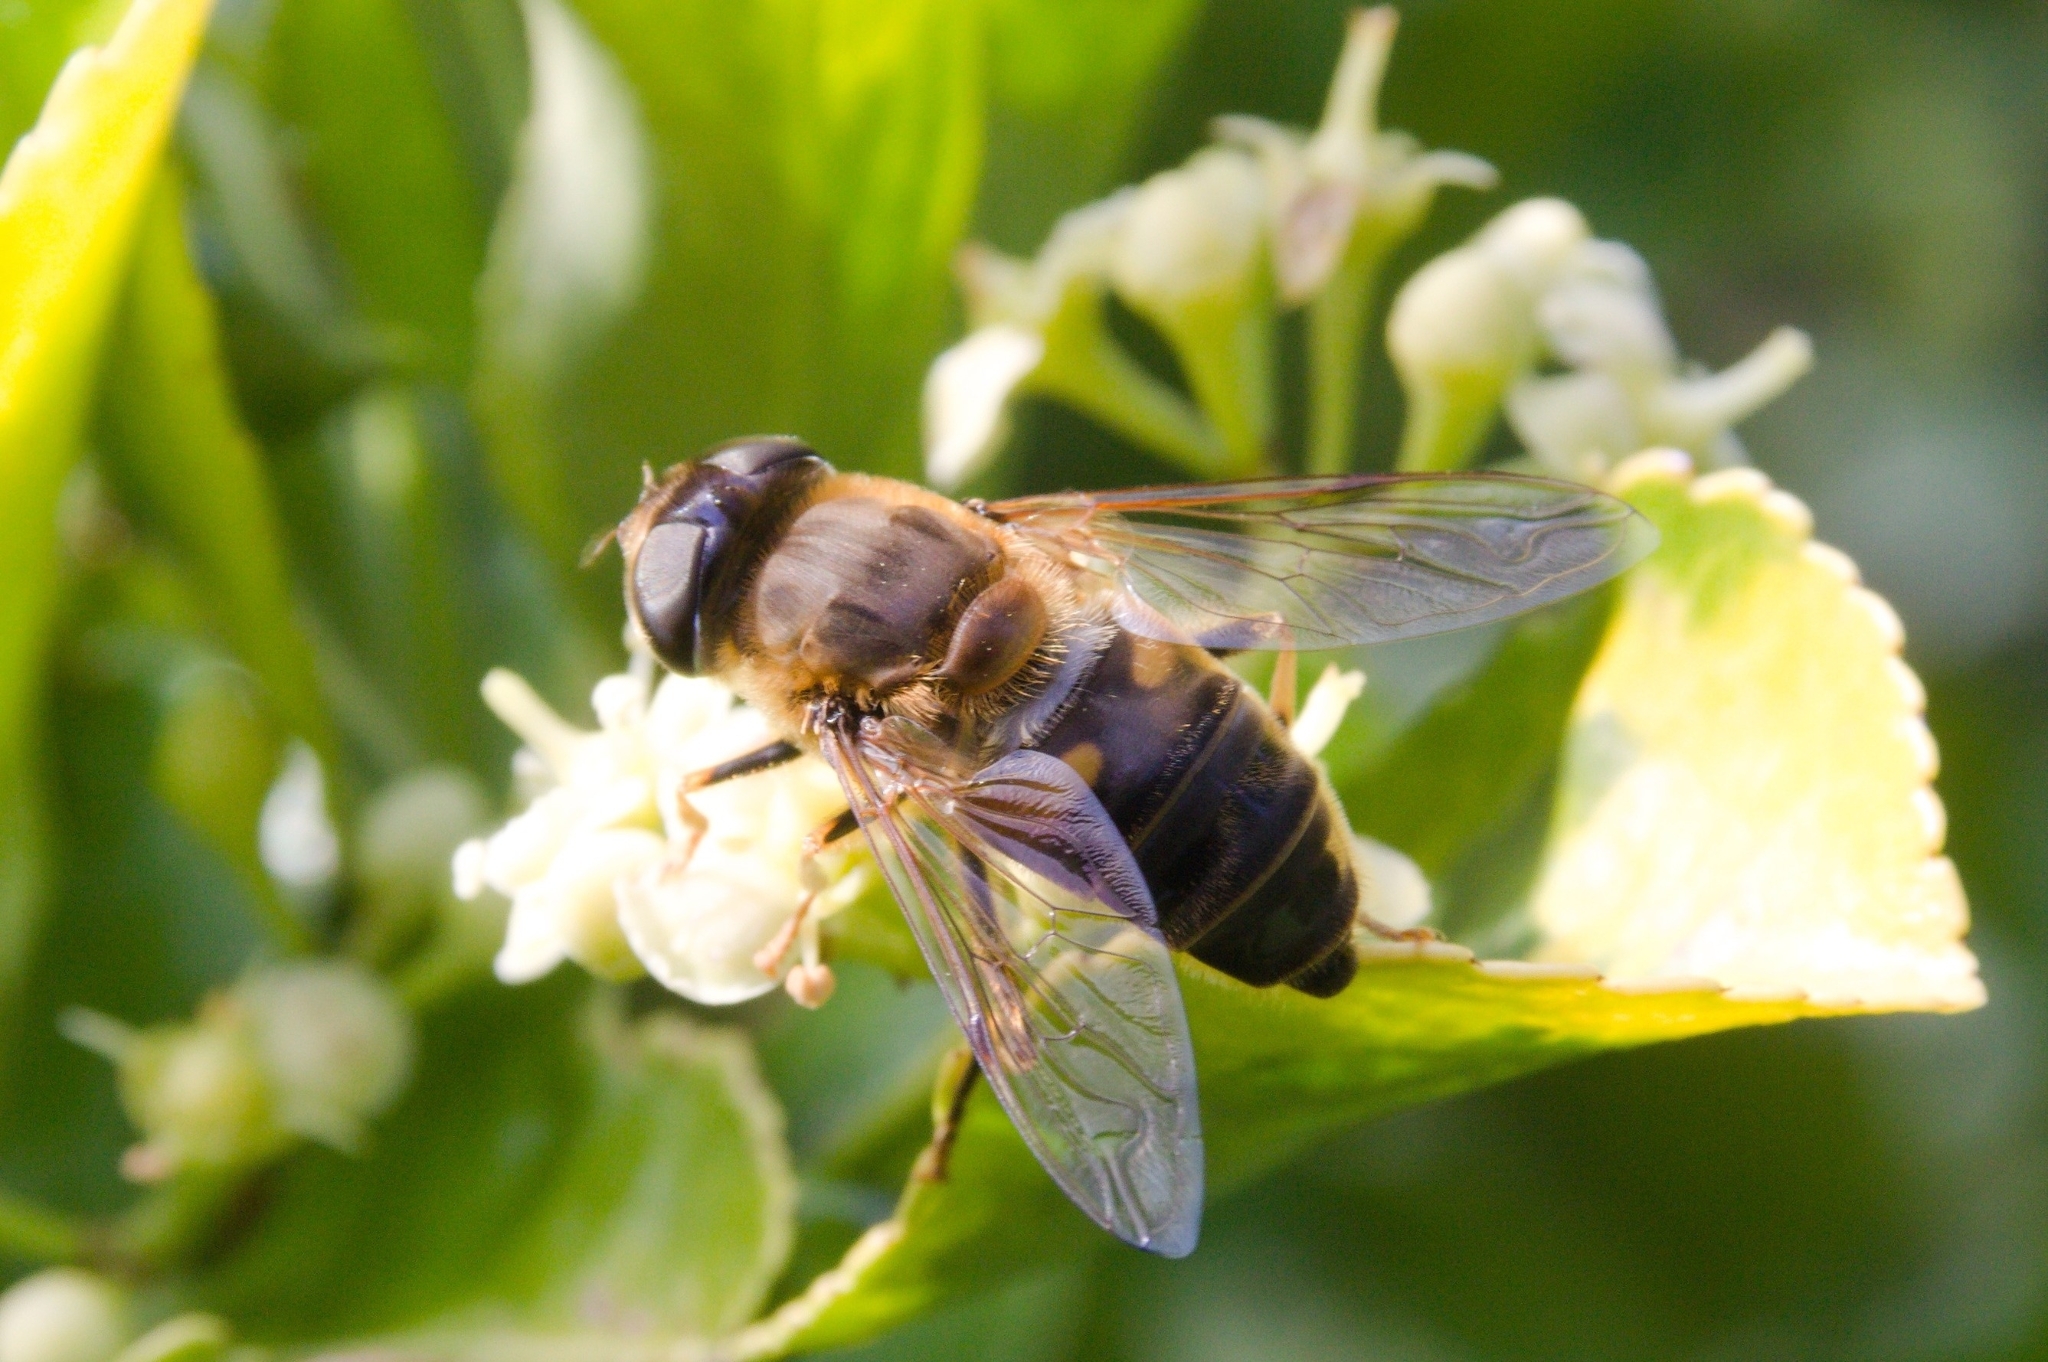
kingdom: Animalia
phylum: Arthropoda
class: Insecta
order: Diptera
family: Syrphidae
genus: Eristalis
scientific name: Eristalis pertinax
